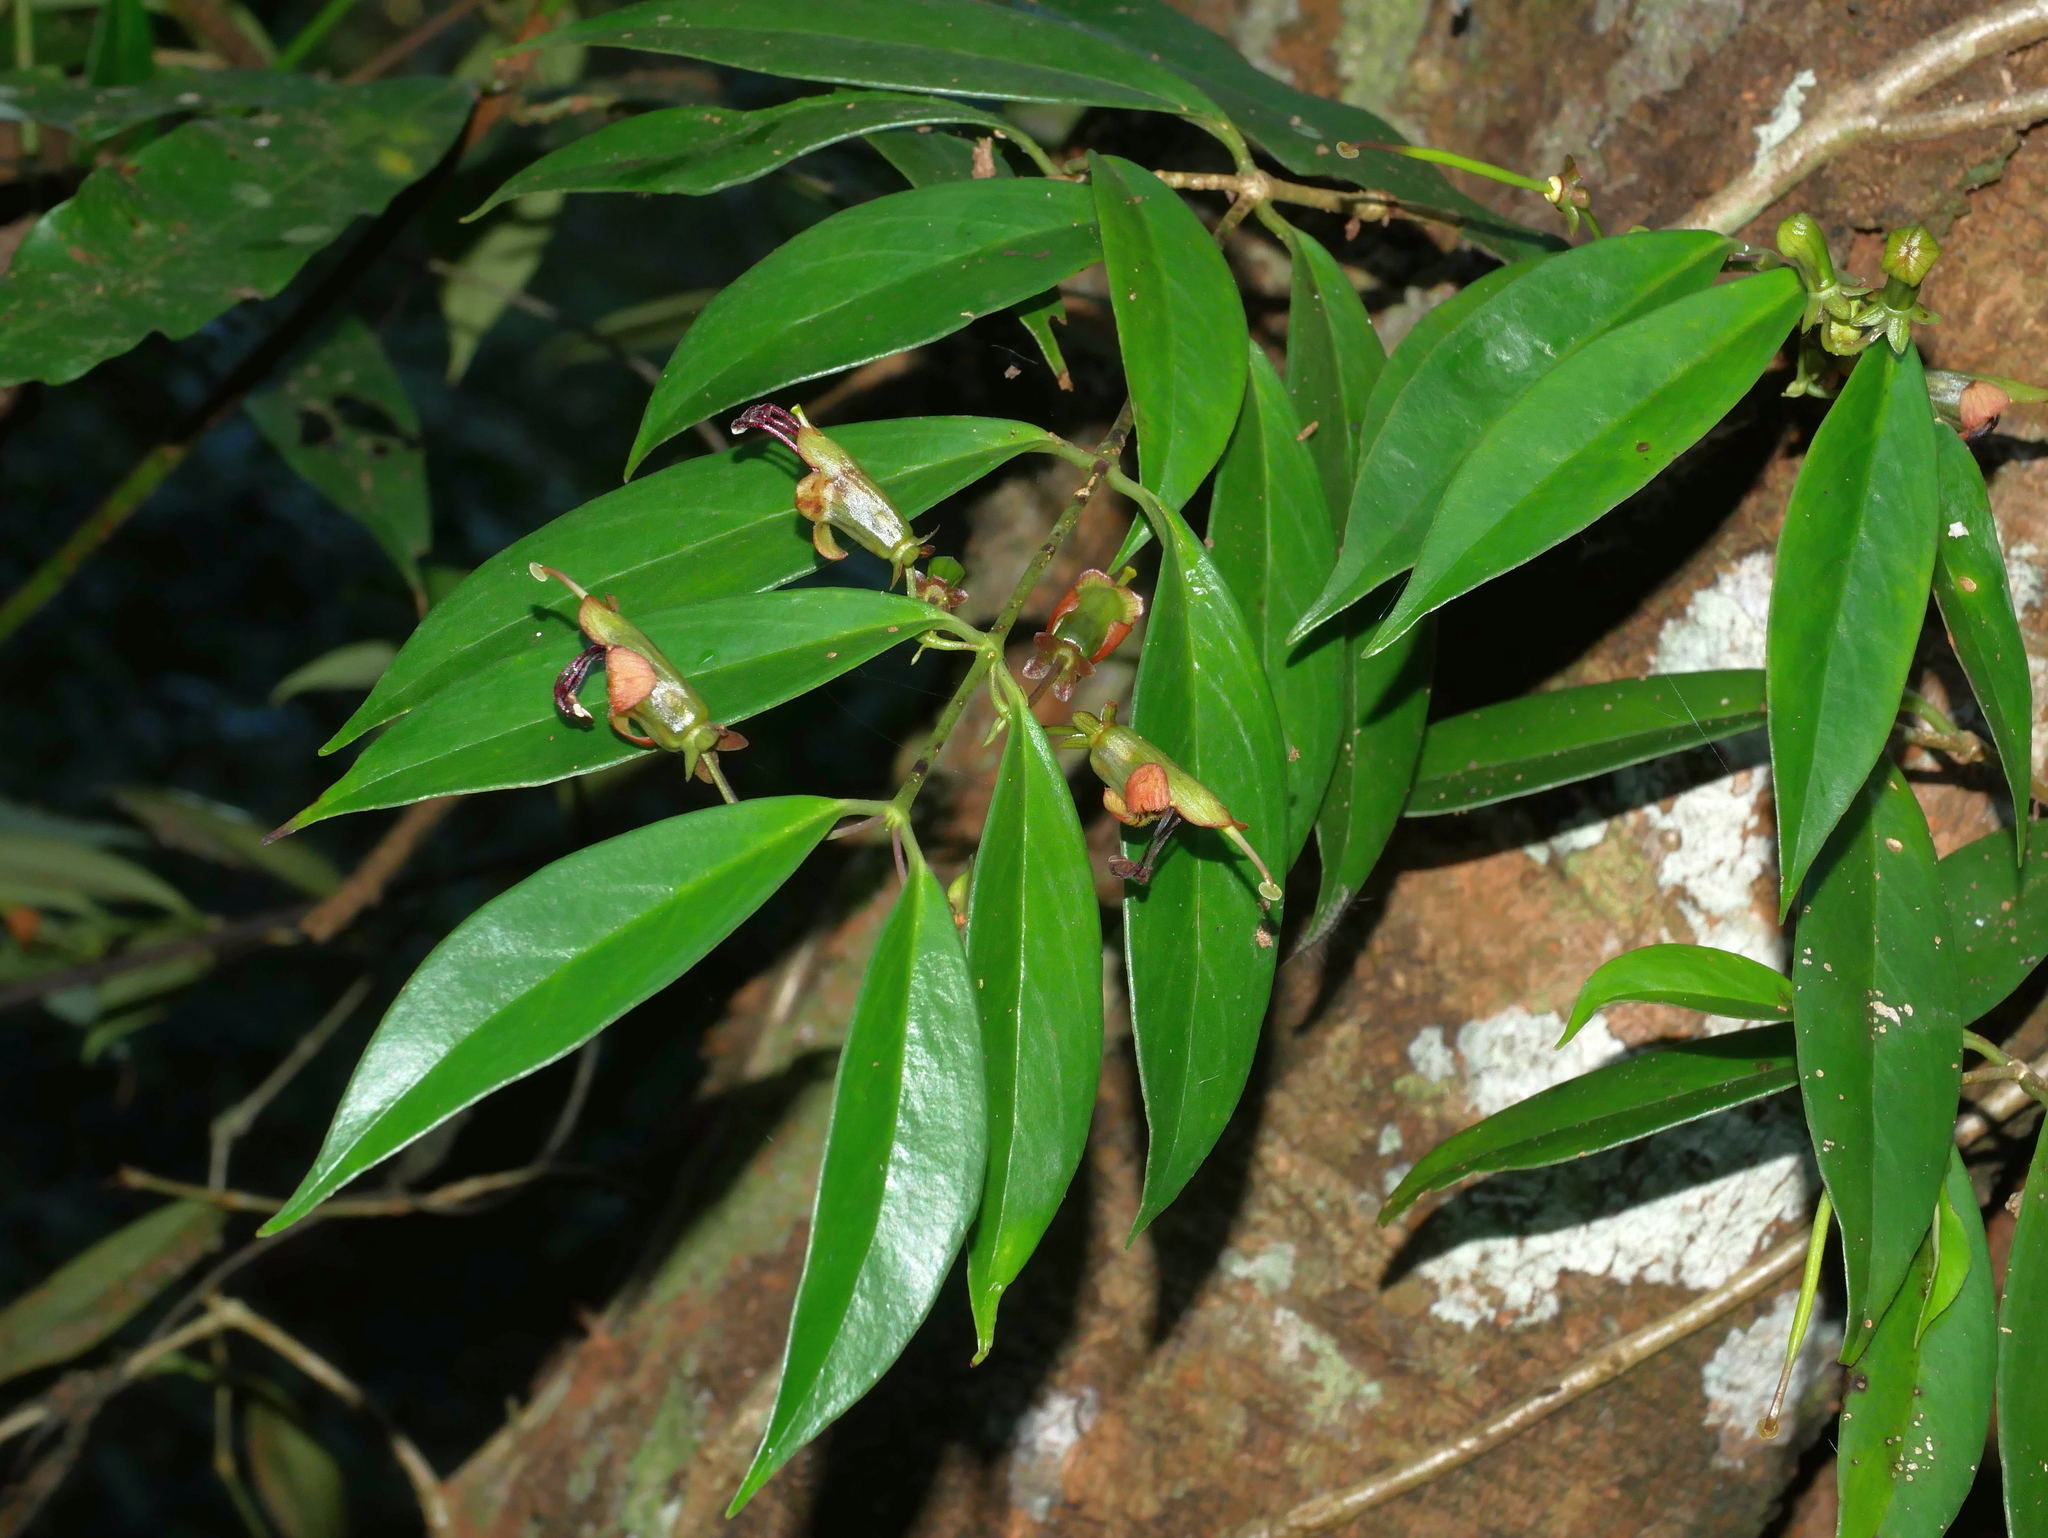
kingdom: Plantae
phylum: Tracheophyta
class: Magnoliopsida
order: Lamiales
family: Gesneriaceae
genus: Aeschynanthus
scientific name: Aeschynanthus acuminatus
